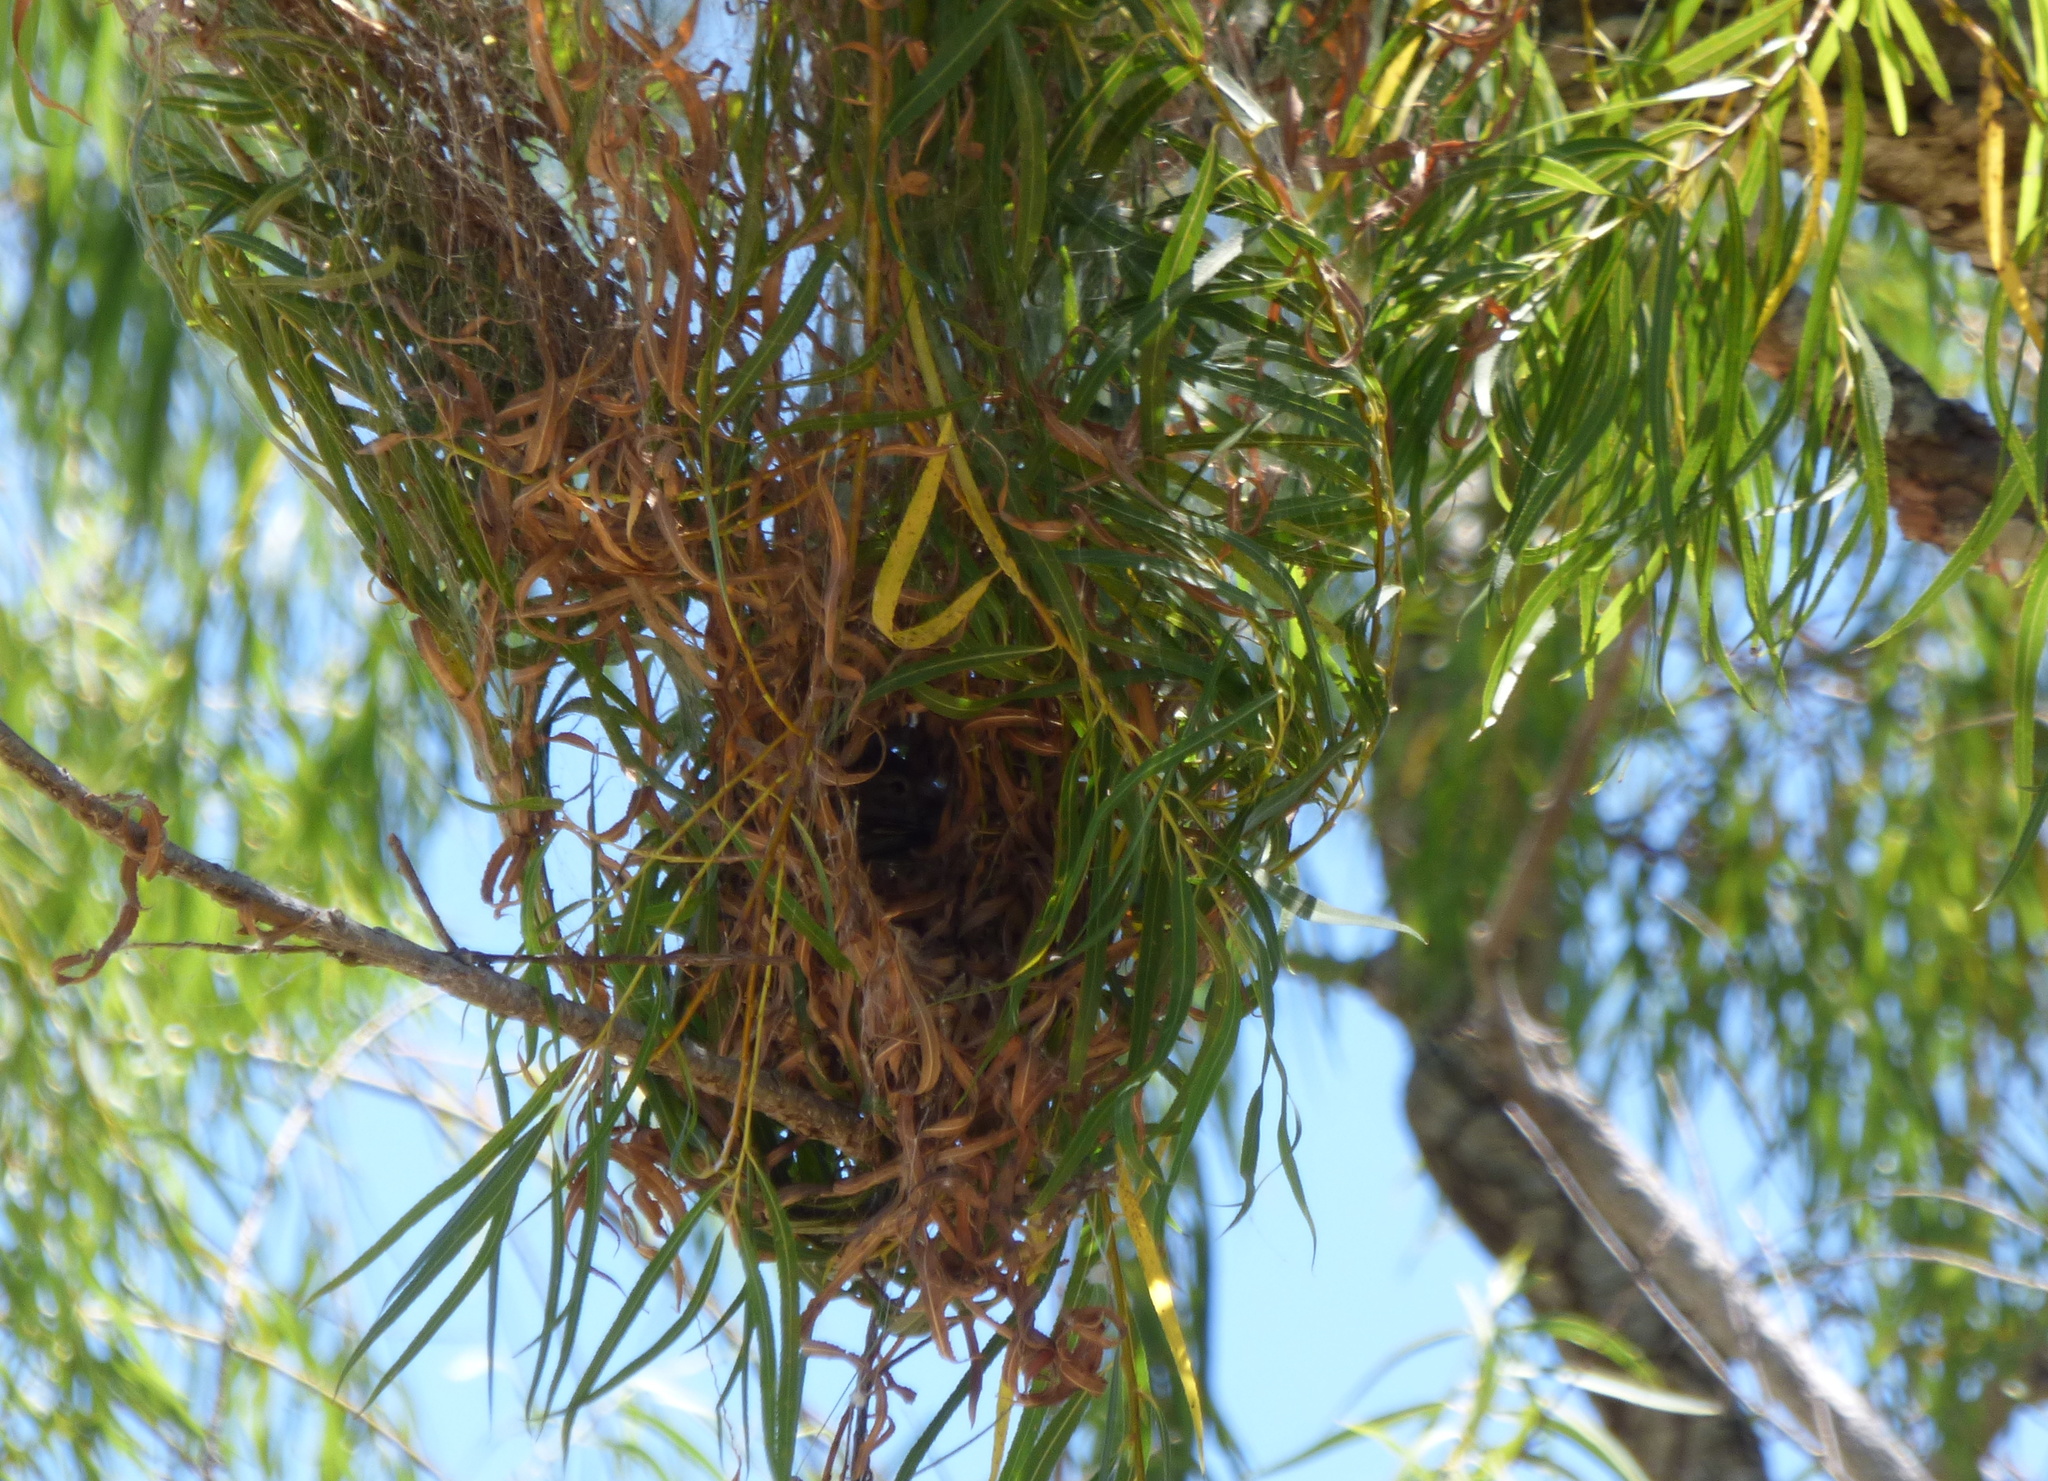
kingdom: Animalia
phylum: Chordata
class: Aves
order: Passeriformes
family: Tyrannidae
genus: Camptostoma
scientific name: Camptostoma obsoletum
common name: Southern beardless-tyrannulet
